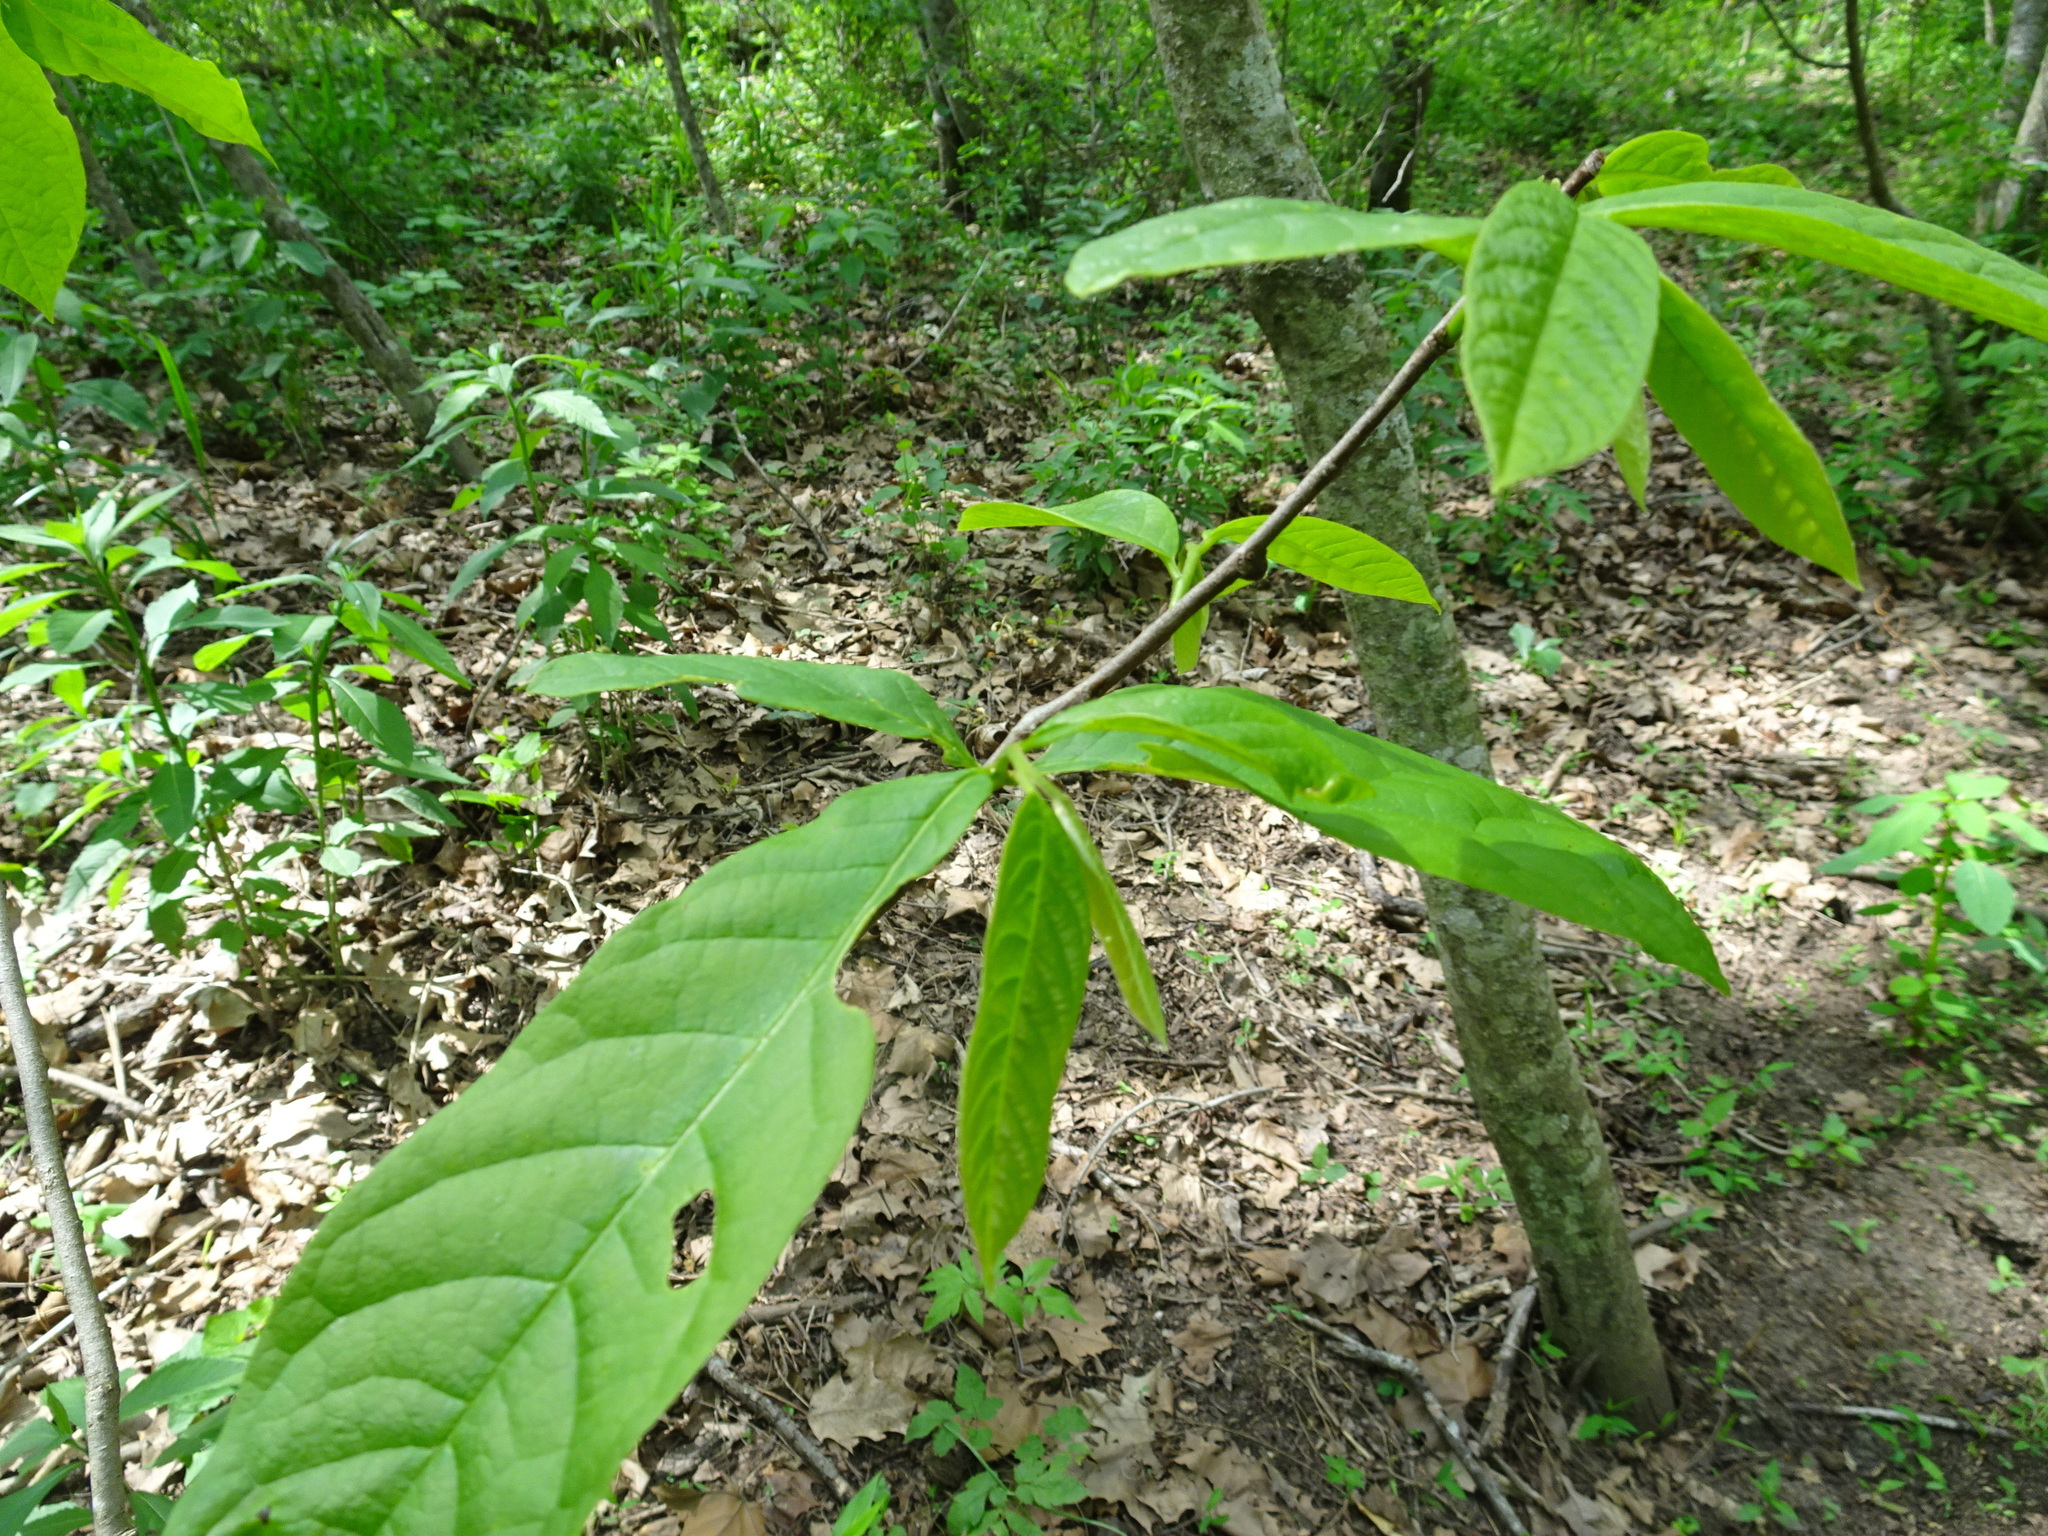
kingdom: Plantae
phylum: Tracheophyta
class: Magnoliopsida
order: Magnoliales
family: Annonaceae
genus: Asimina
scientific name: Asimina triloba
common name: Dog-banana
